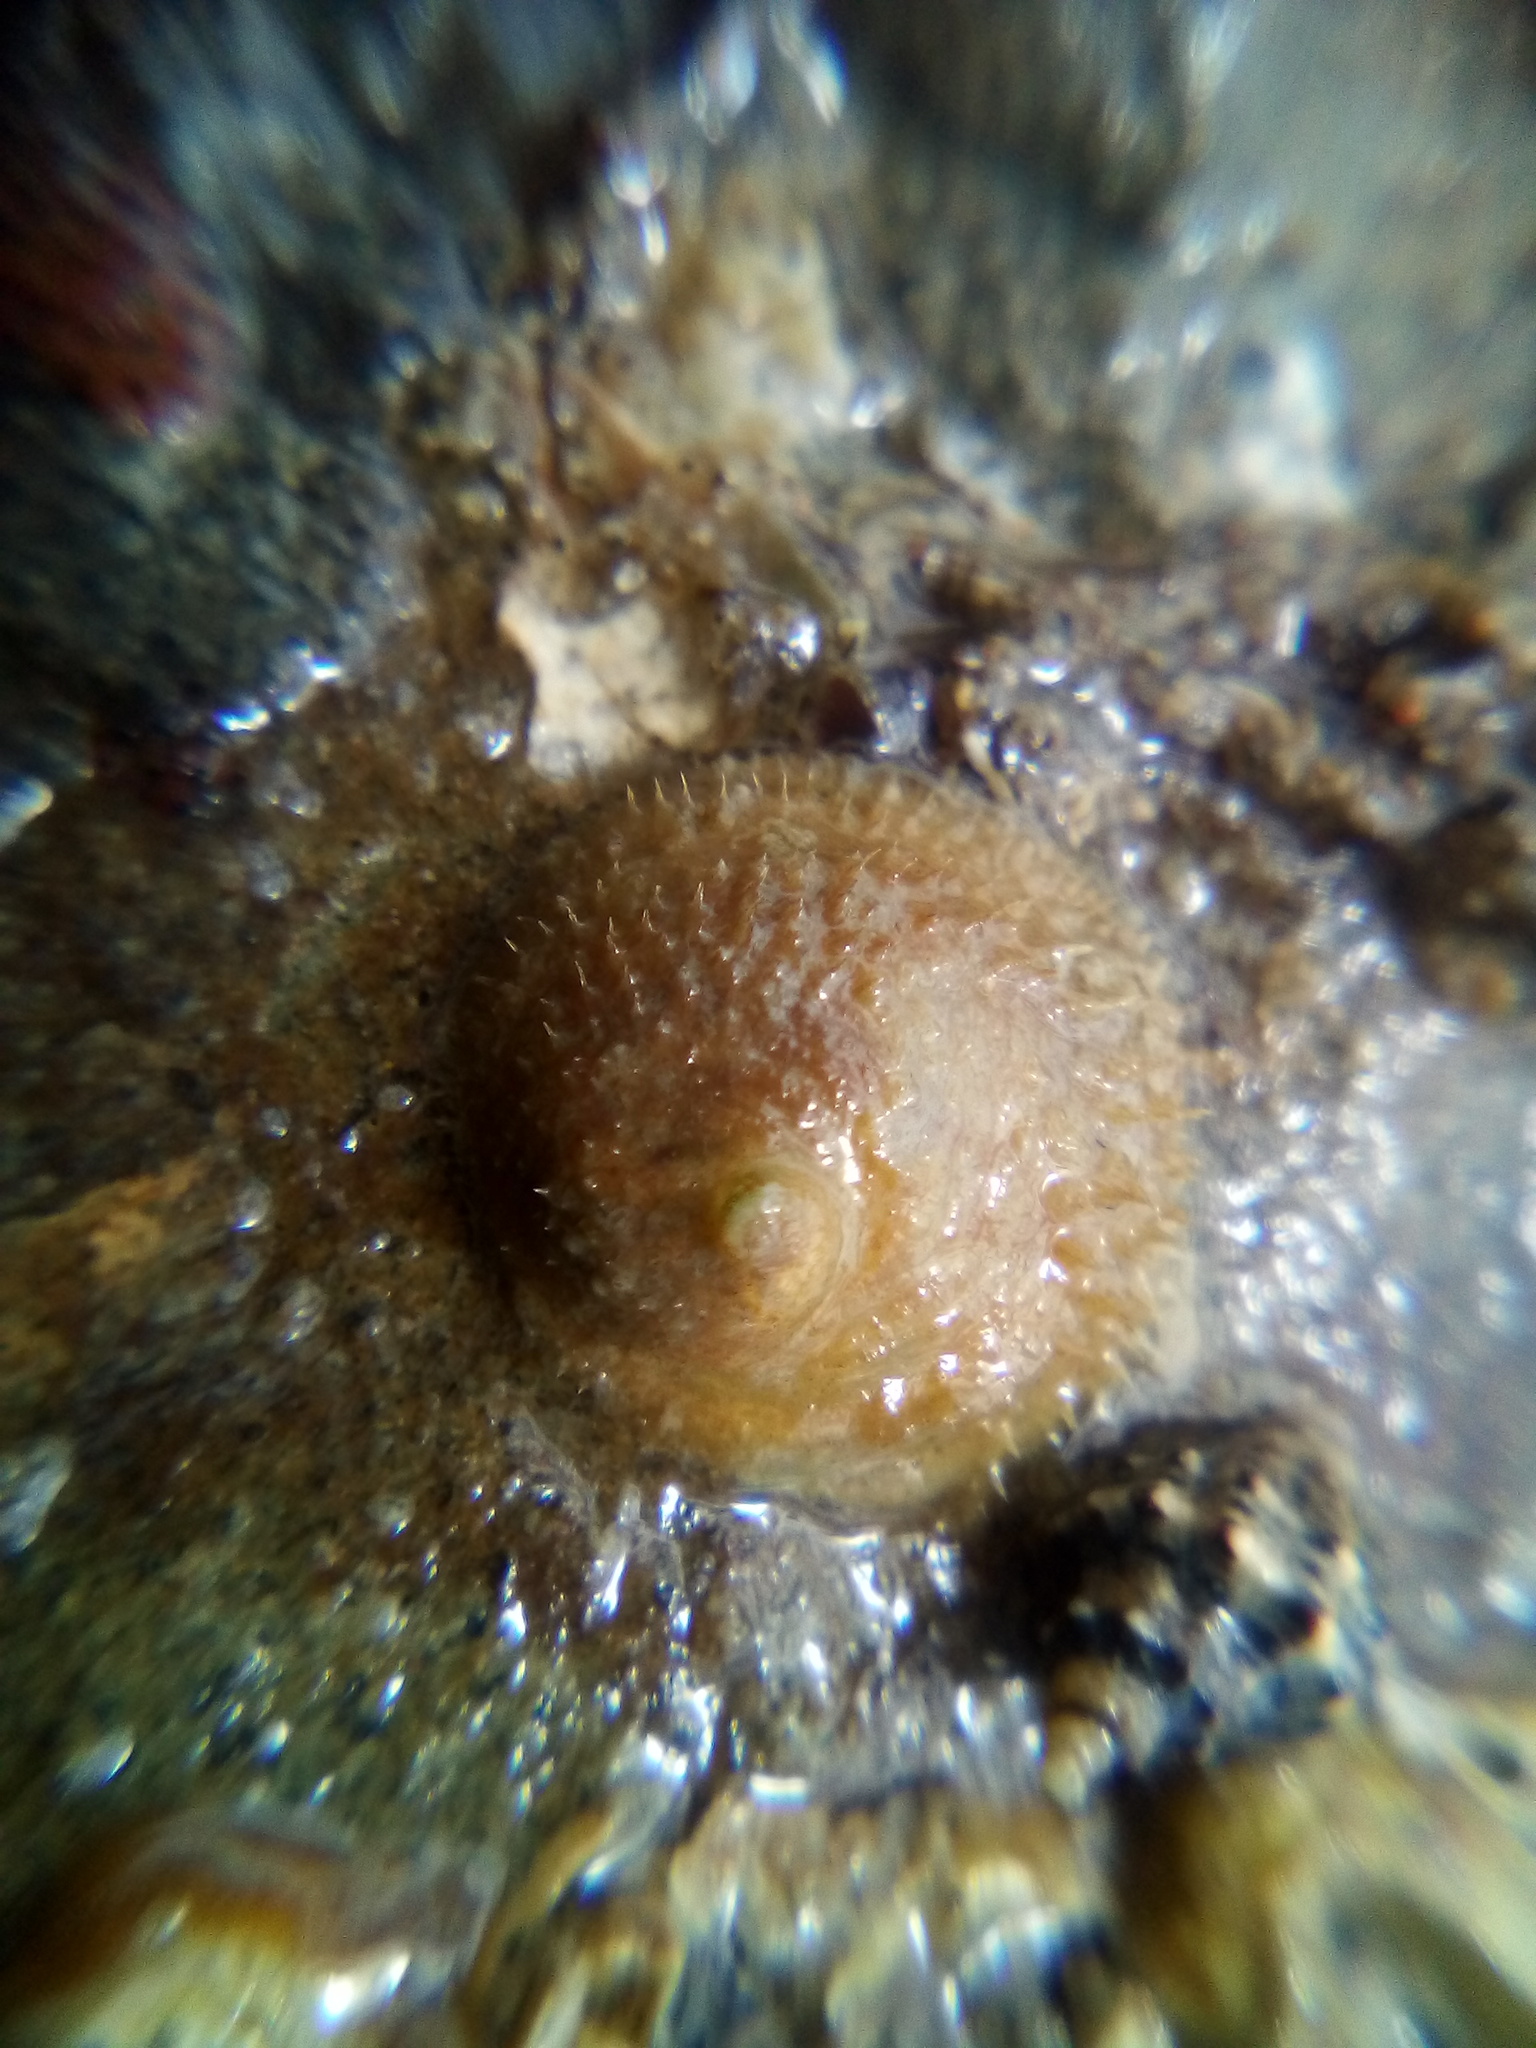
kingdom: Animalia
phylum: Mollusca
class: Gastropoda
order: Littorinimorpha
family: Calyptraeidae
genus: Sigapatella
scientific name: Sigapatella novaezelandiae
